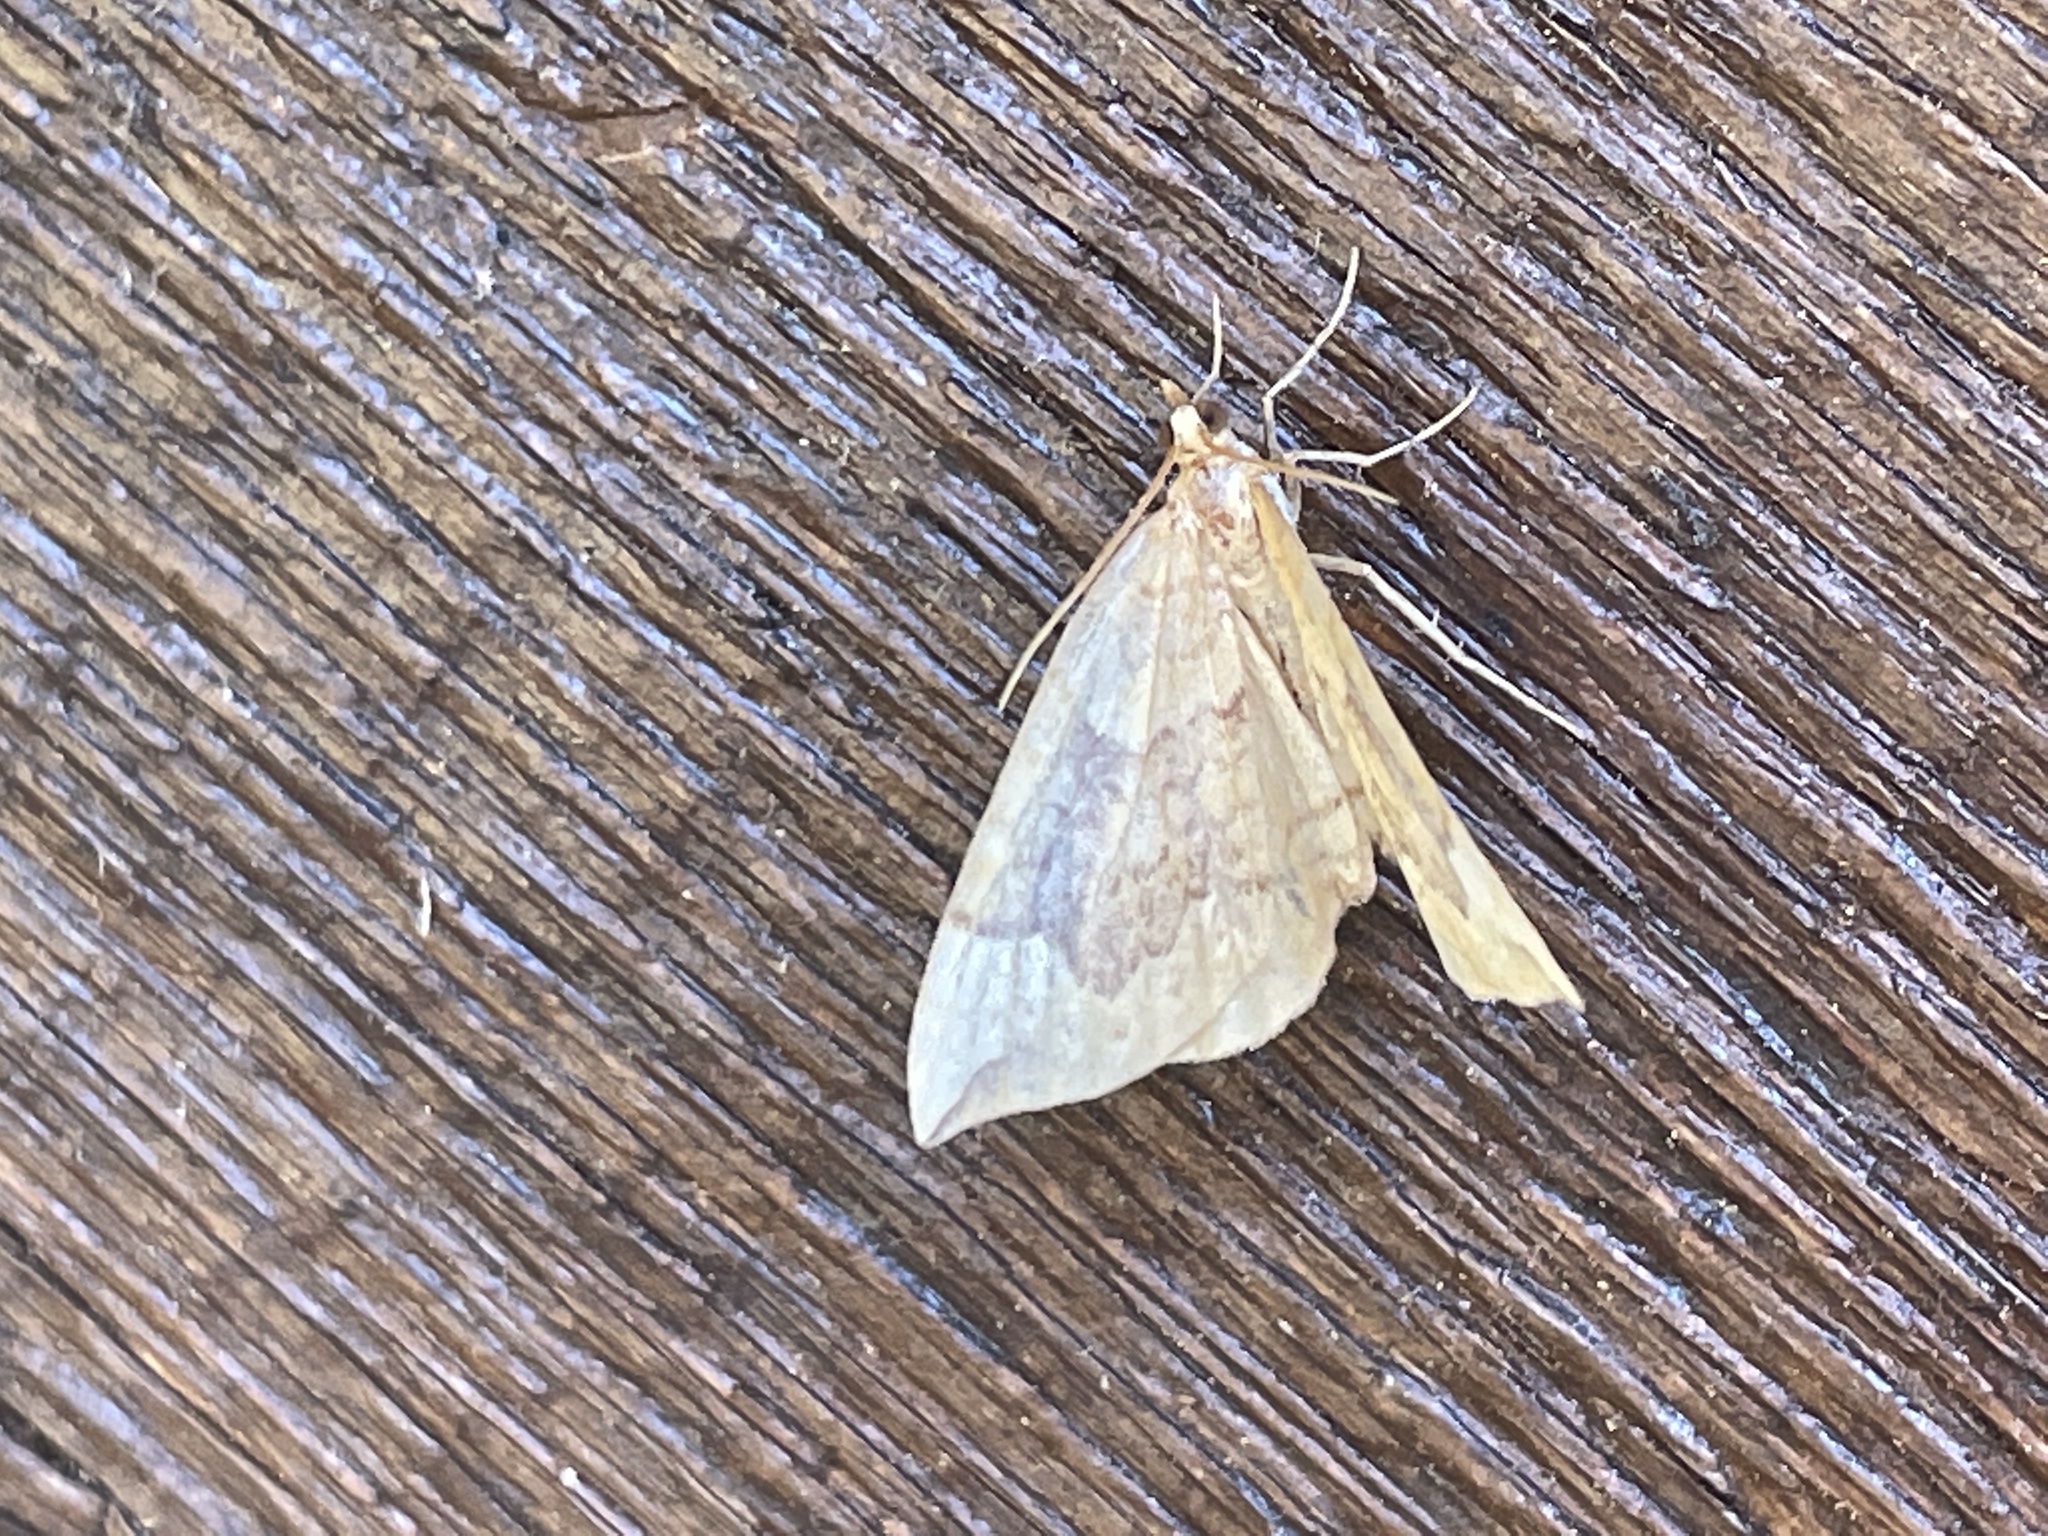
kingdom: Animalia
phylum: Arthropoda
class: Insecta
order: Lepidoptera
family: Geometridae
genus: Eulithis
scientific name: Eulithis populata
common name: Northern spinach
